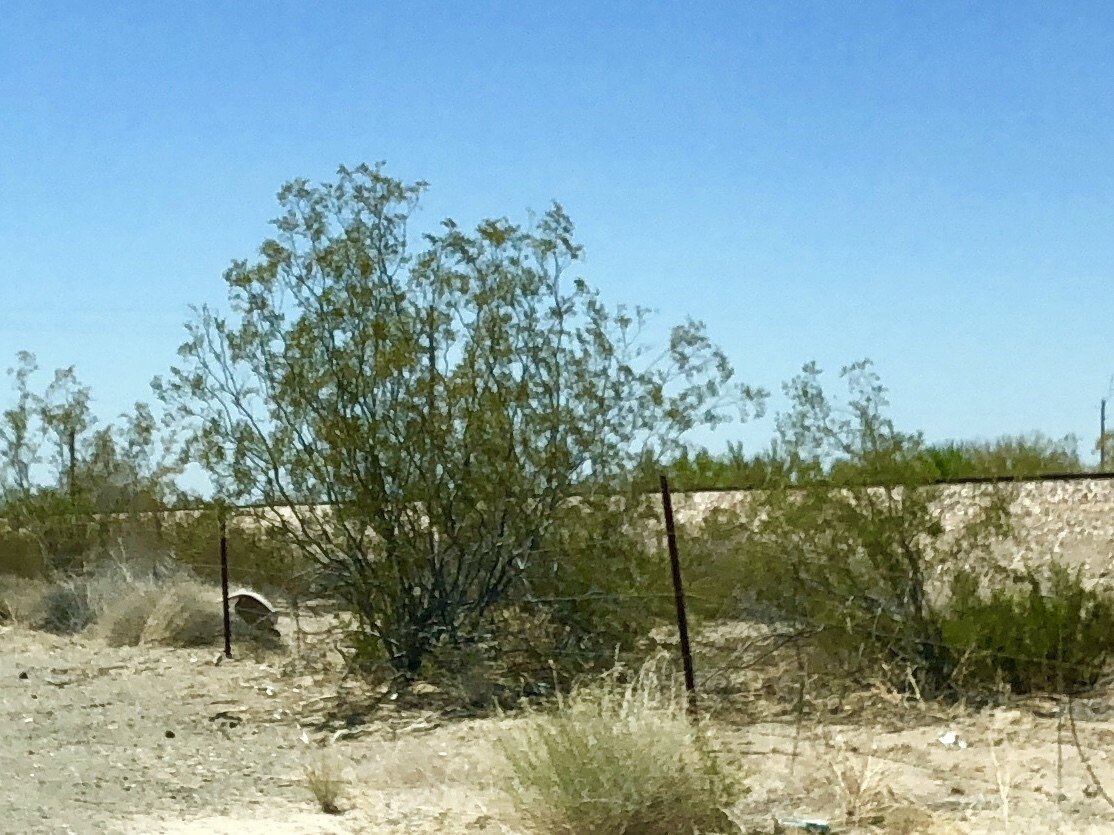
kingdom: Plantae
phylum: Tracheophyta
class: Magnoliopsida
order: Zygophyllales
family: Zygophyllaceae
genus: Larrea
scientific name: Larrea tridentata
